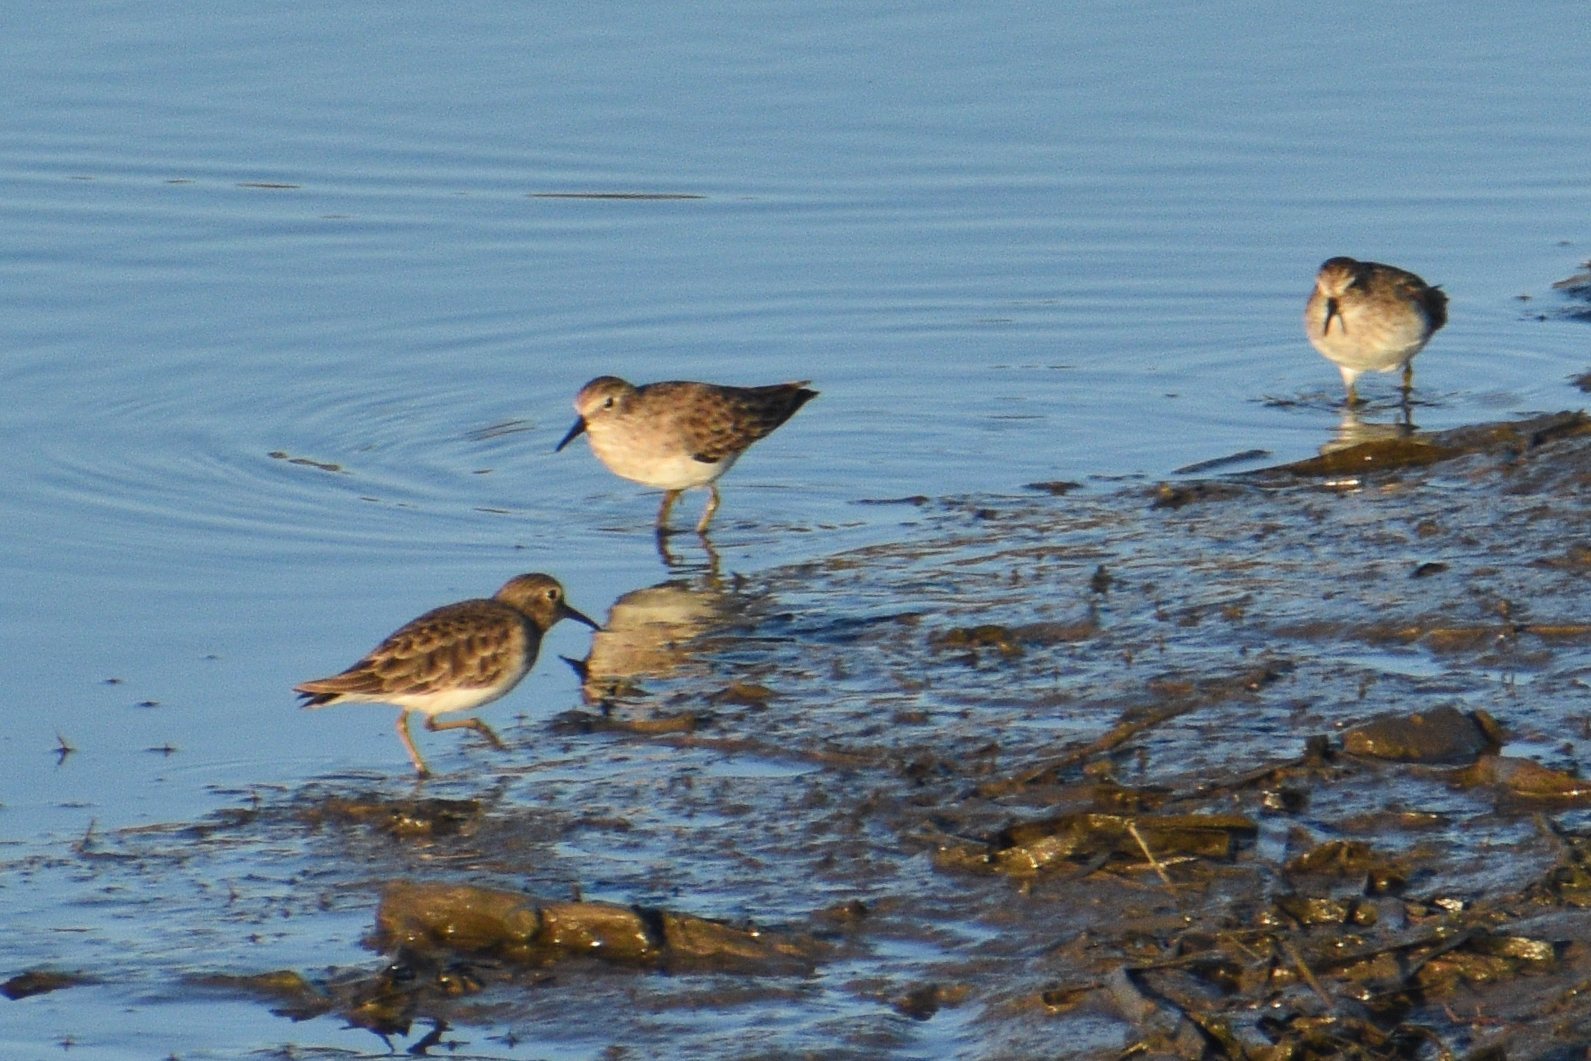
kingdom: Animalia
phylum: Chordata
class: Aves
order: Charadriiformes
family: Scolopacidae
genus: Calidris
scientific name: Calidris minutilla
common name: Least sandpiper
